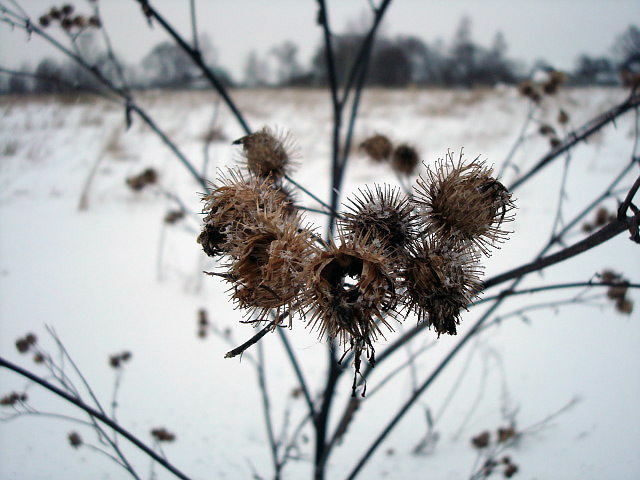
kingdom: Plantae
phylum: Tracheophyta
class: Magnoliopsida
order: Asterales
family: Asteraceae
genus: Arctium
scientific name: Arctium lappa
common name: Greater burdock
